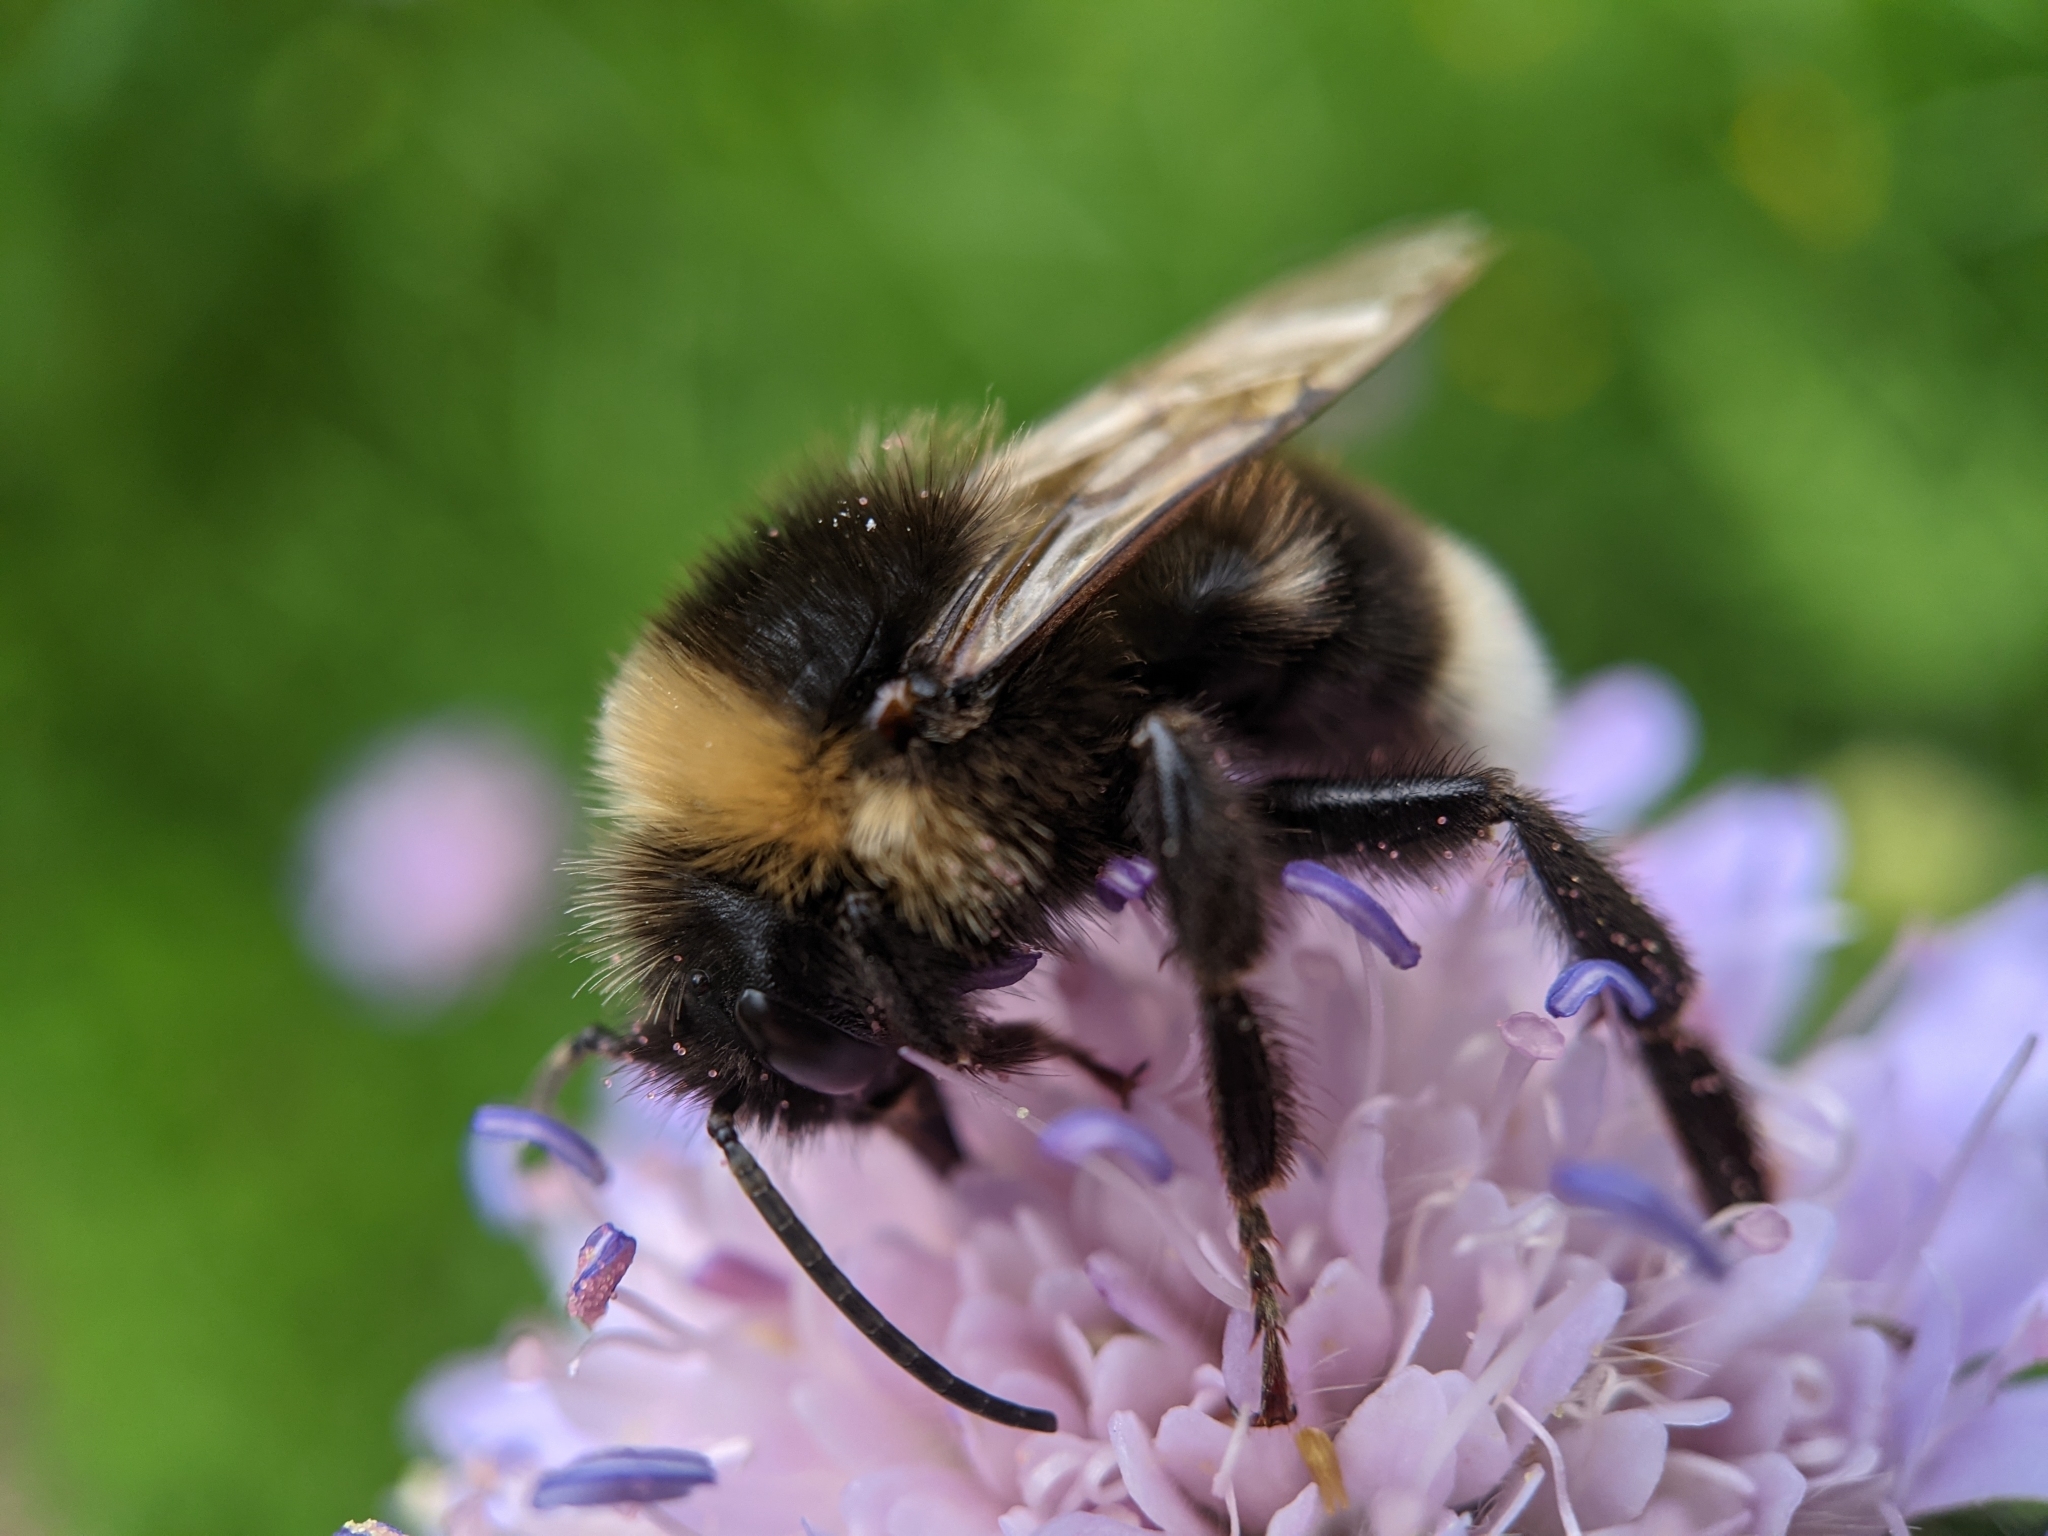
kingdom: Animalia
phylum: Arthropoda
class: Insecta
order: Hymenoptera
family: Apidae
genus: Bombus
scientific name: Bombus vestalis
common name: Vestal cuckoo bee
